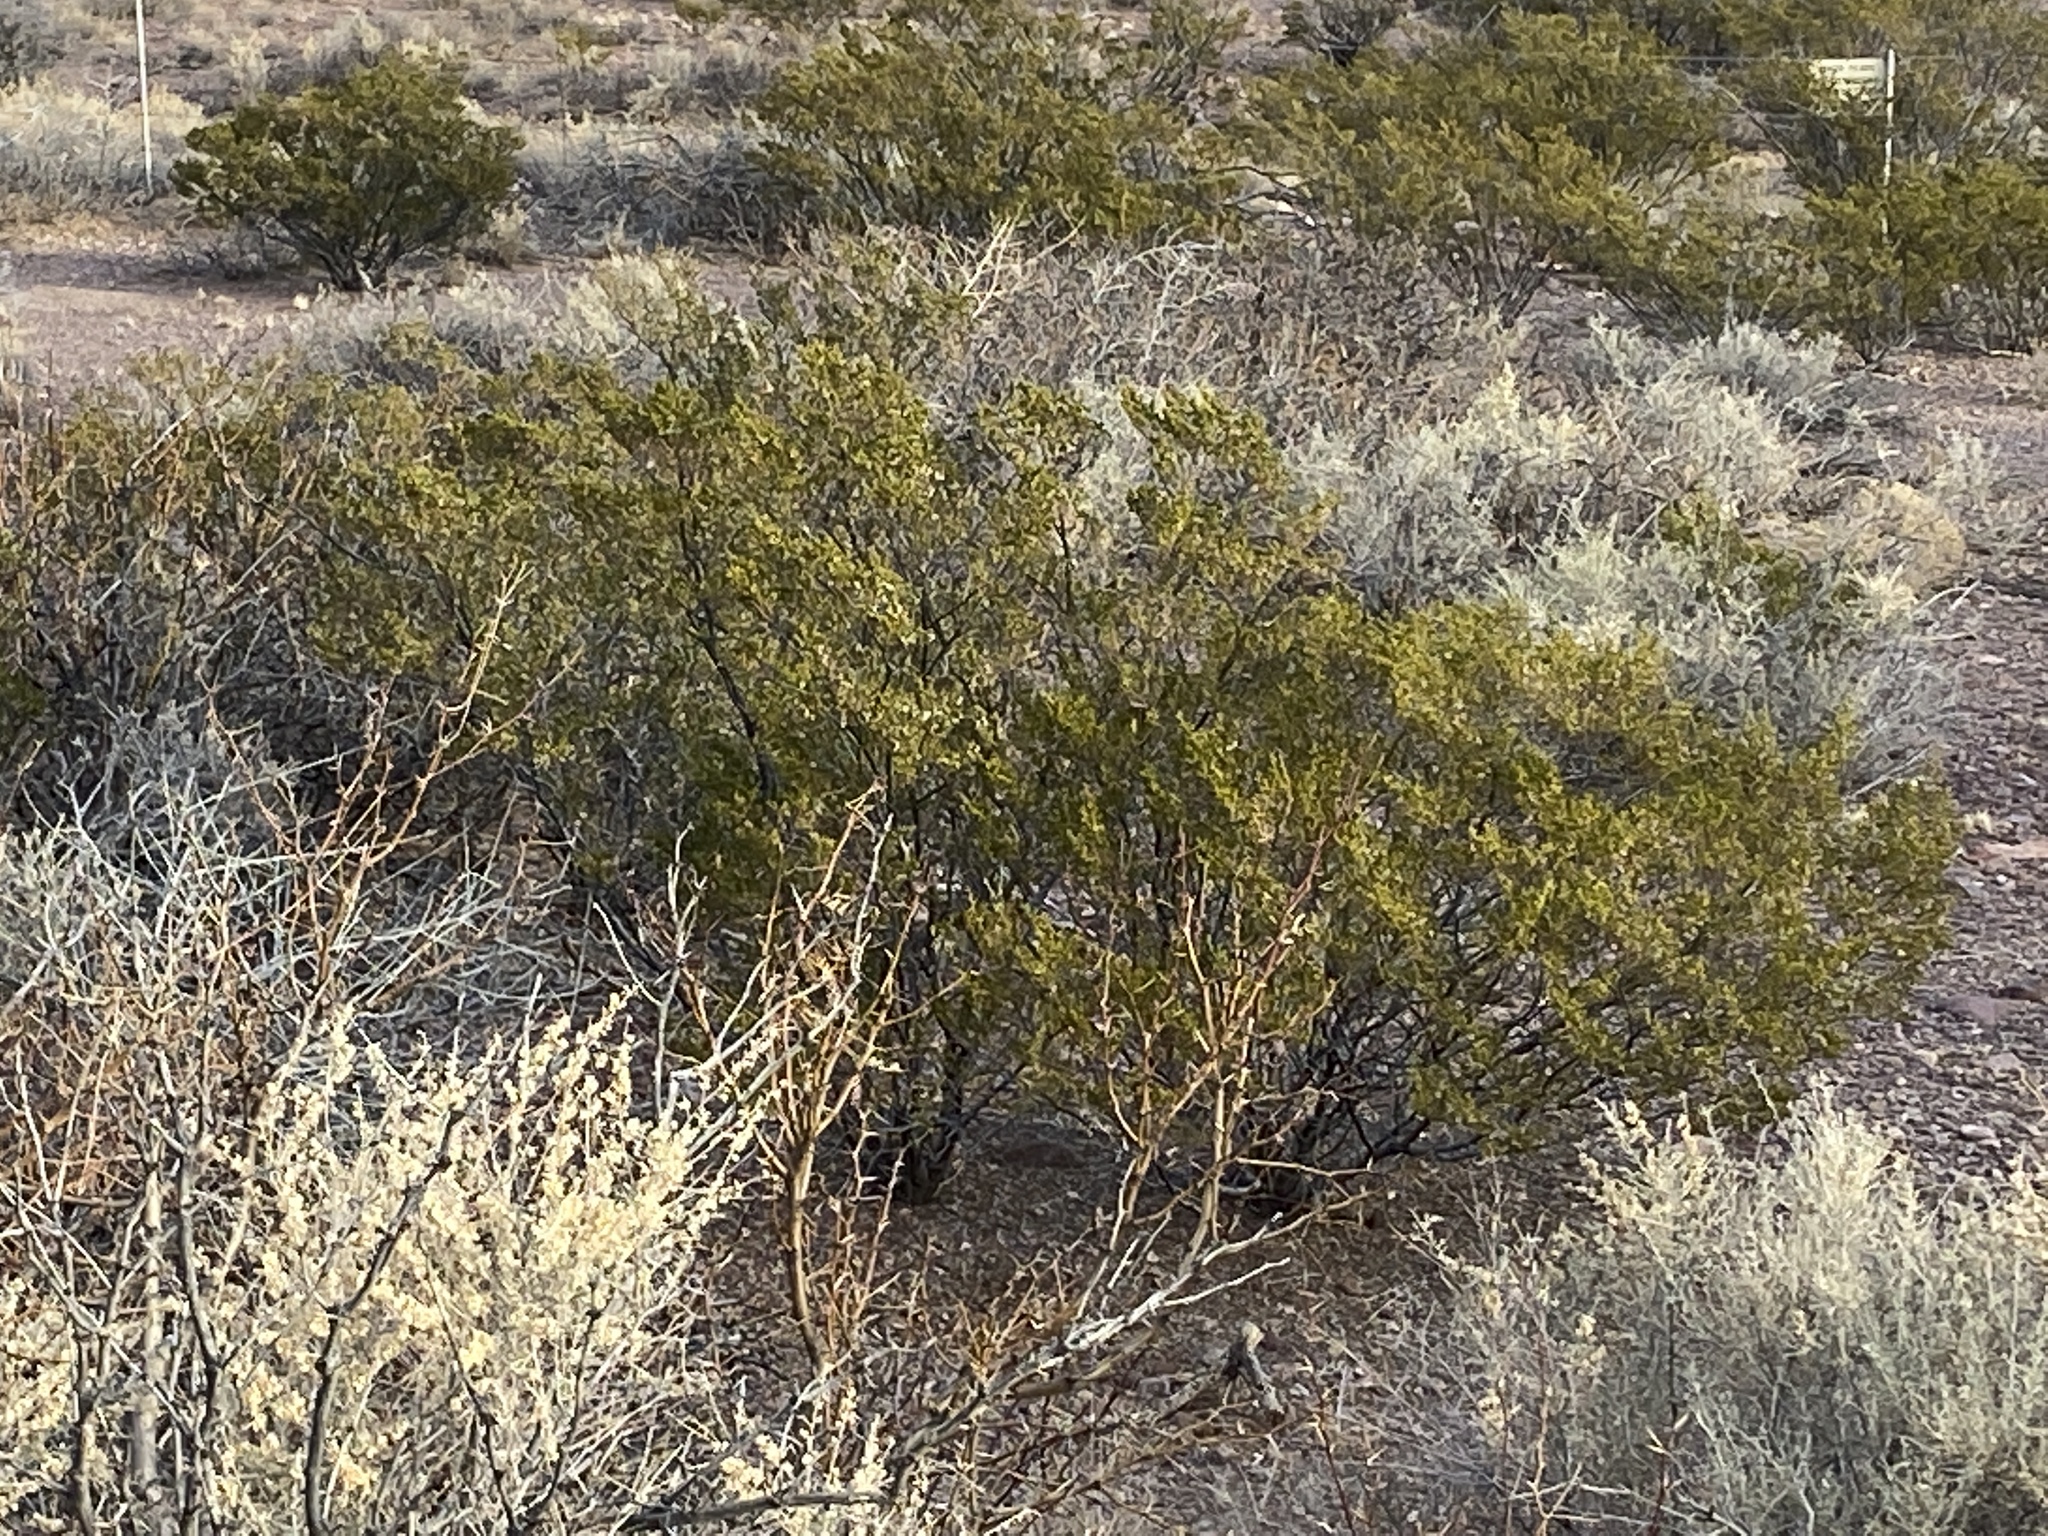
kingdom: Plantae
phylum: Tracheophyta
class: Magnoliopsida
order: Zygophyllales
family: Zygophyllaceae
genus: Larrea
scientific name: Larrea tridentata
